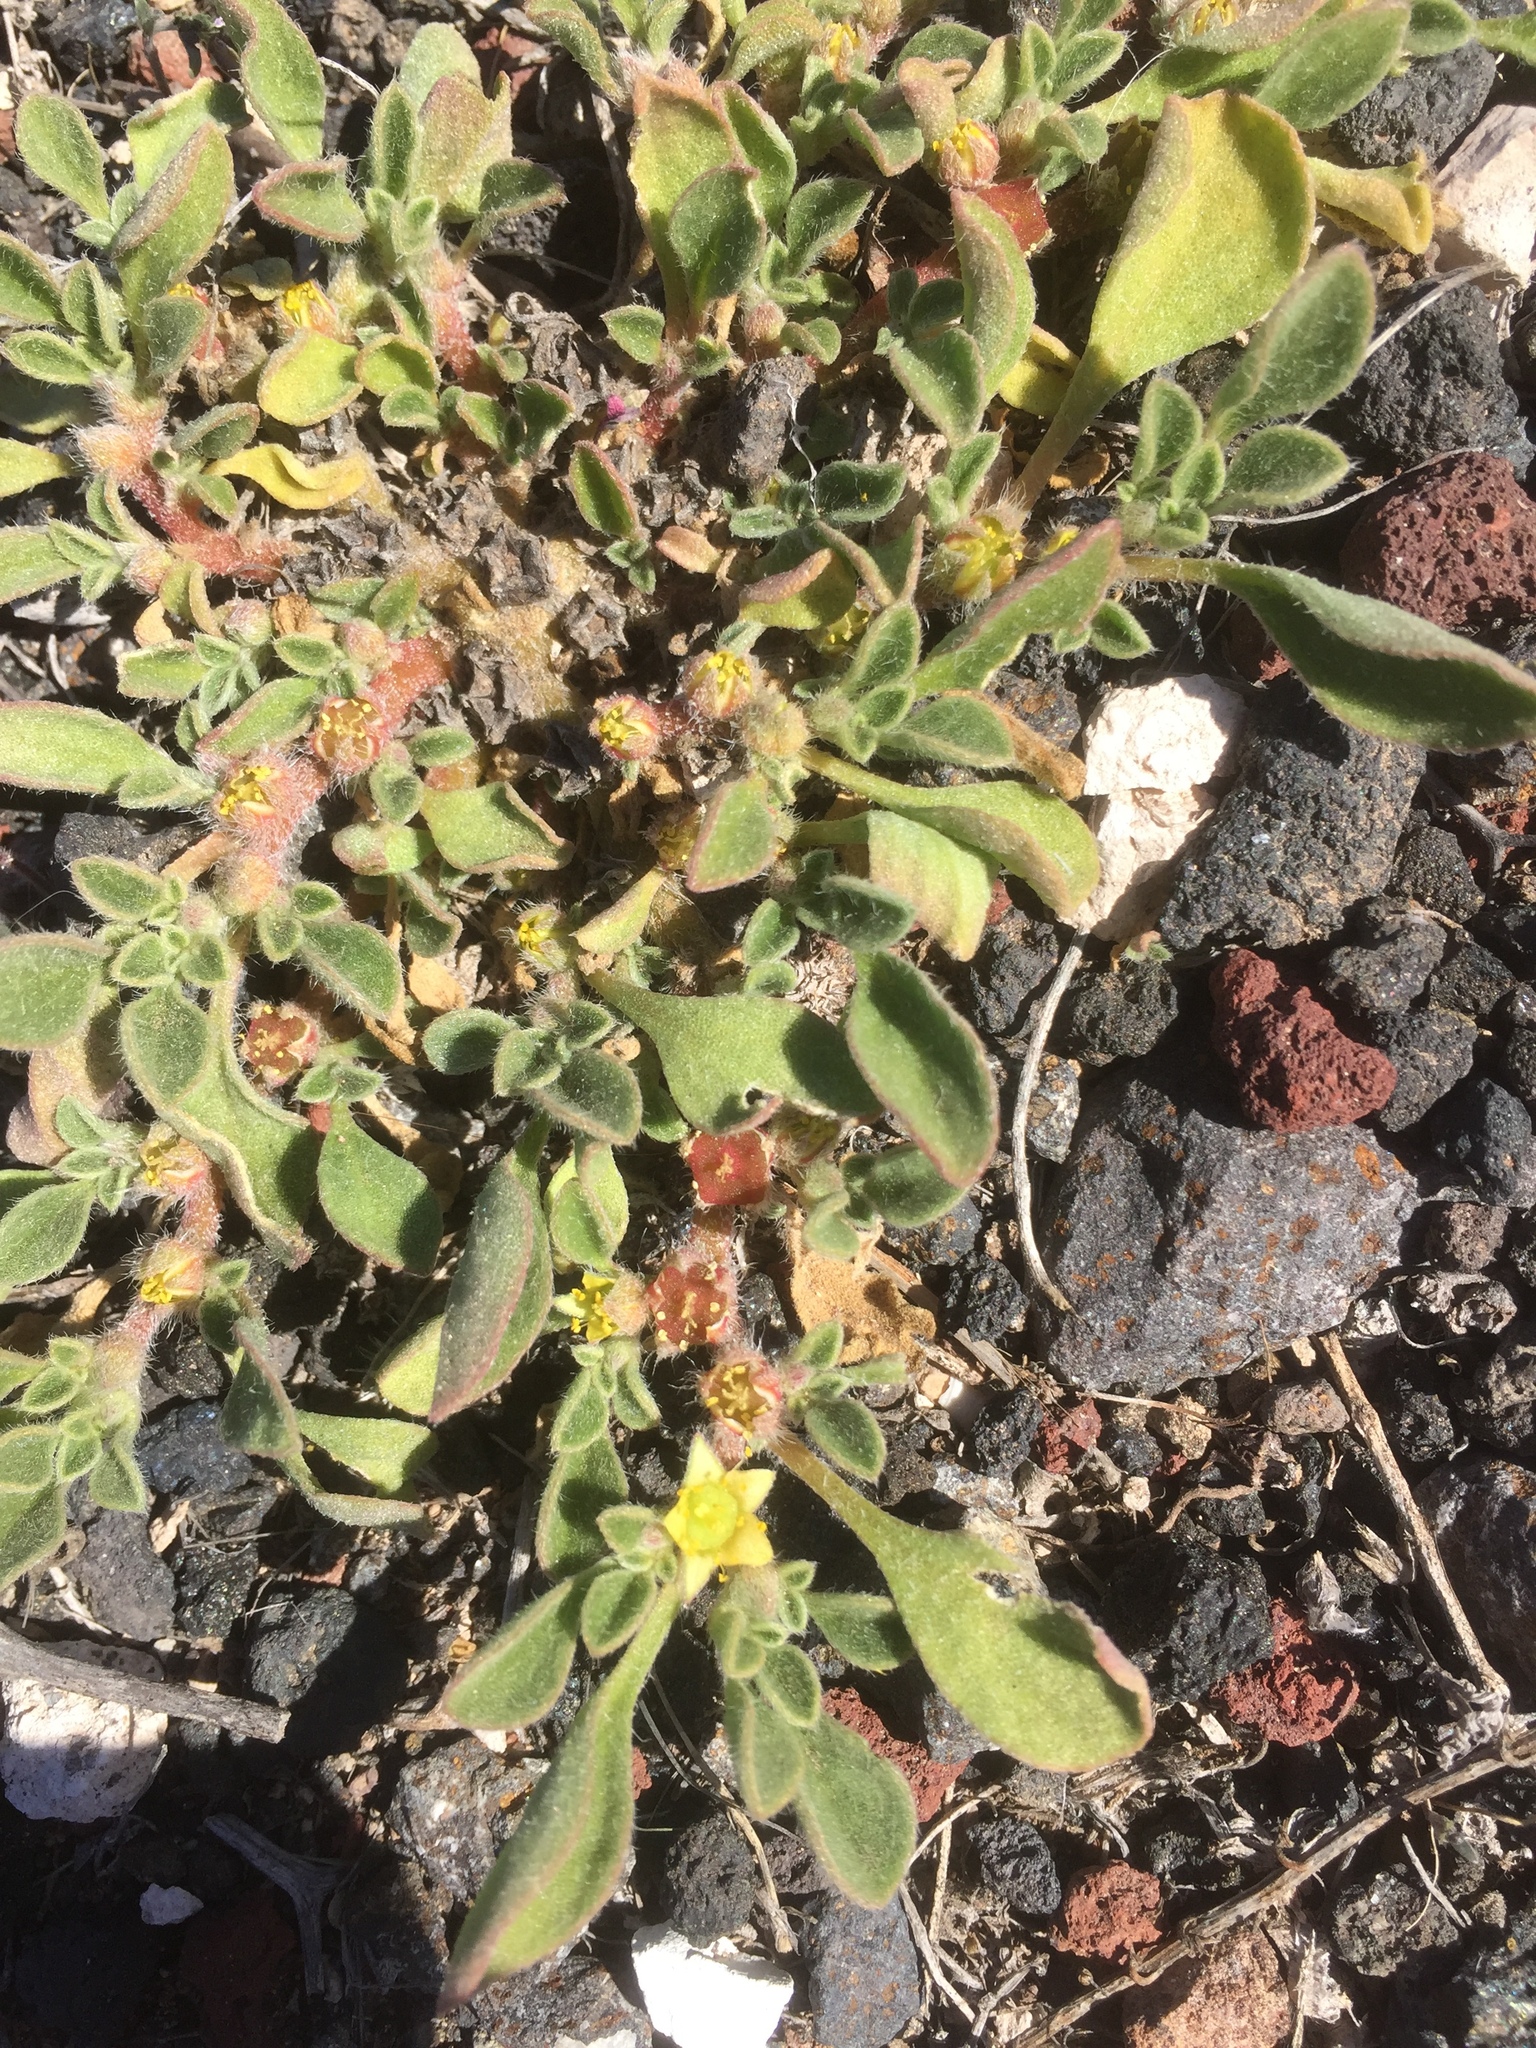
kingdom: Plantae
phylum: Tracheophyta
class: Magnoliopsida
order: Caryophyllales
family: Aizoaceae
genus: Aizoon
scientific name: Aizoon canariense
